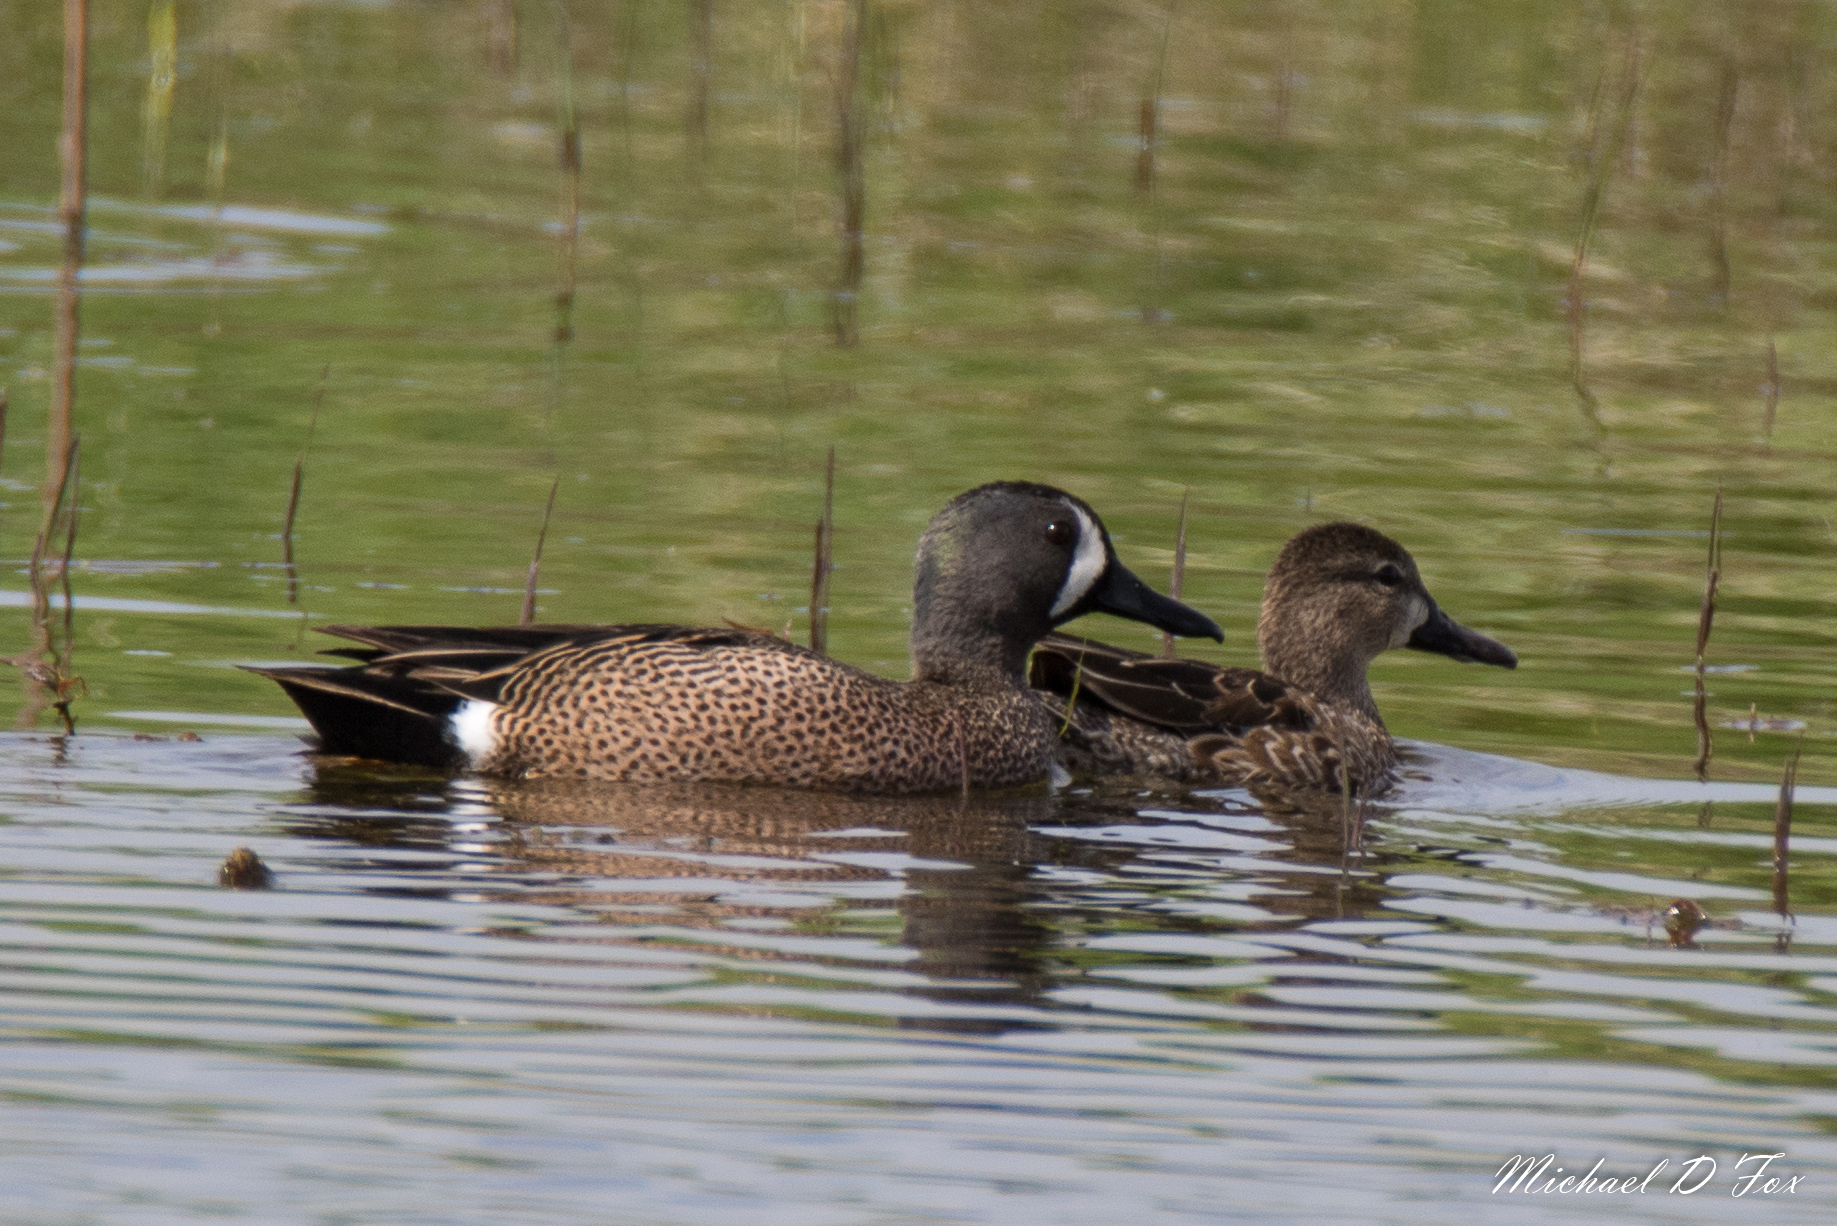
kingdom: Animalia
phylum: Chordata
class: Aves
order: Anseriformes
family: Anatidae
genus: Spatula
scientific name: Spatula discors
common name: Blue-winged teal
